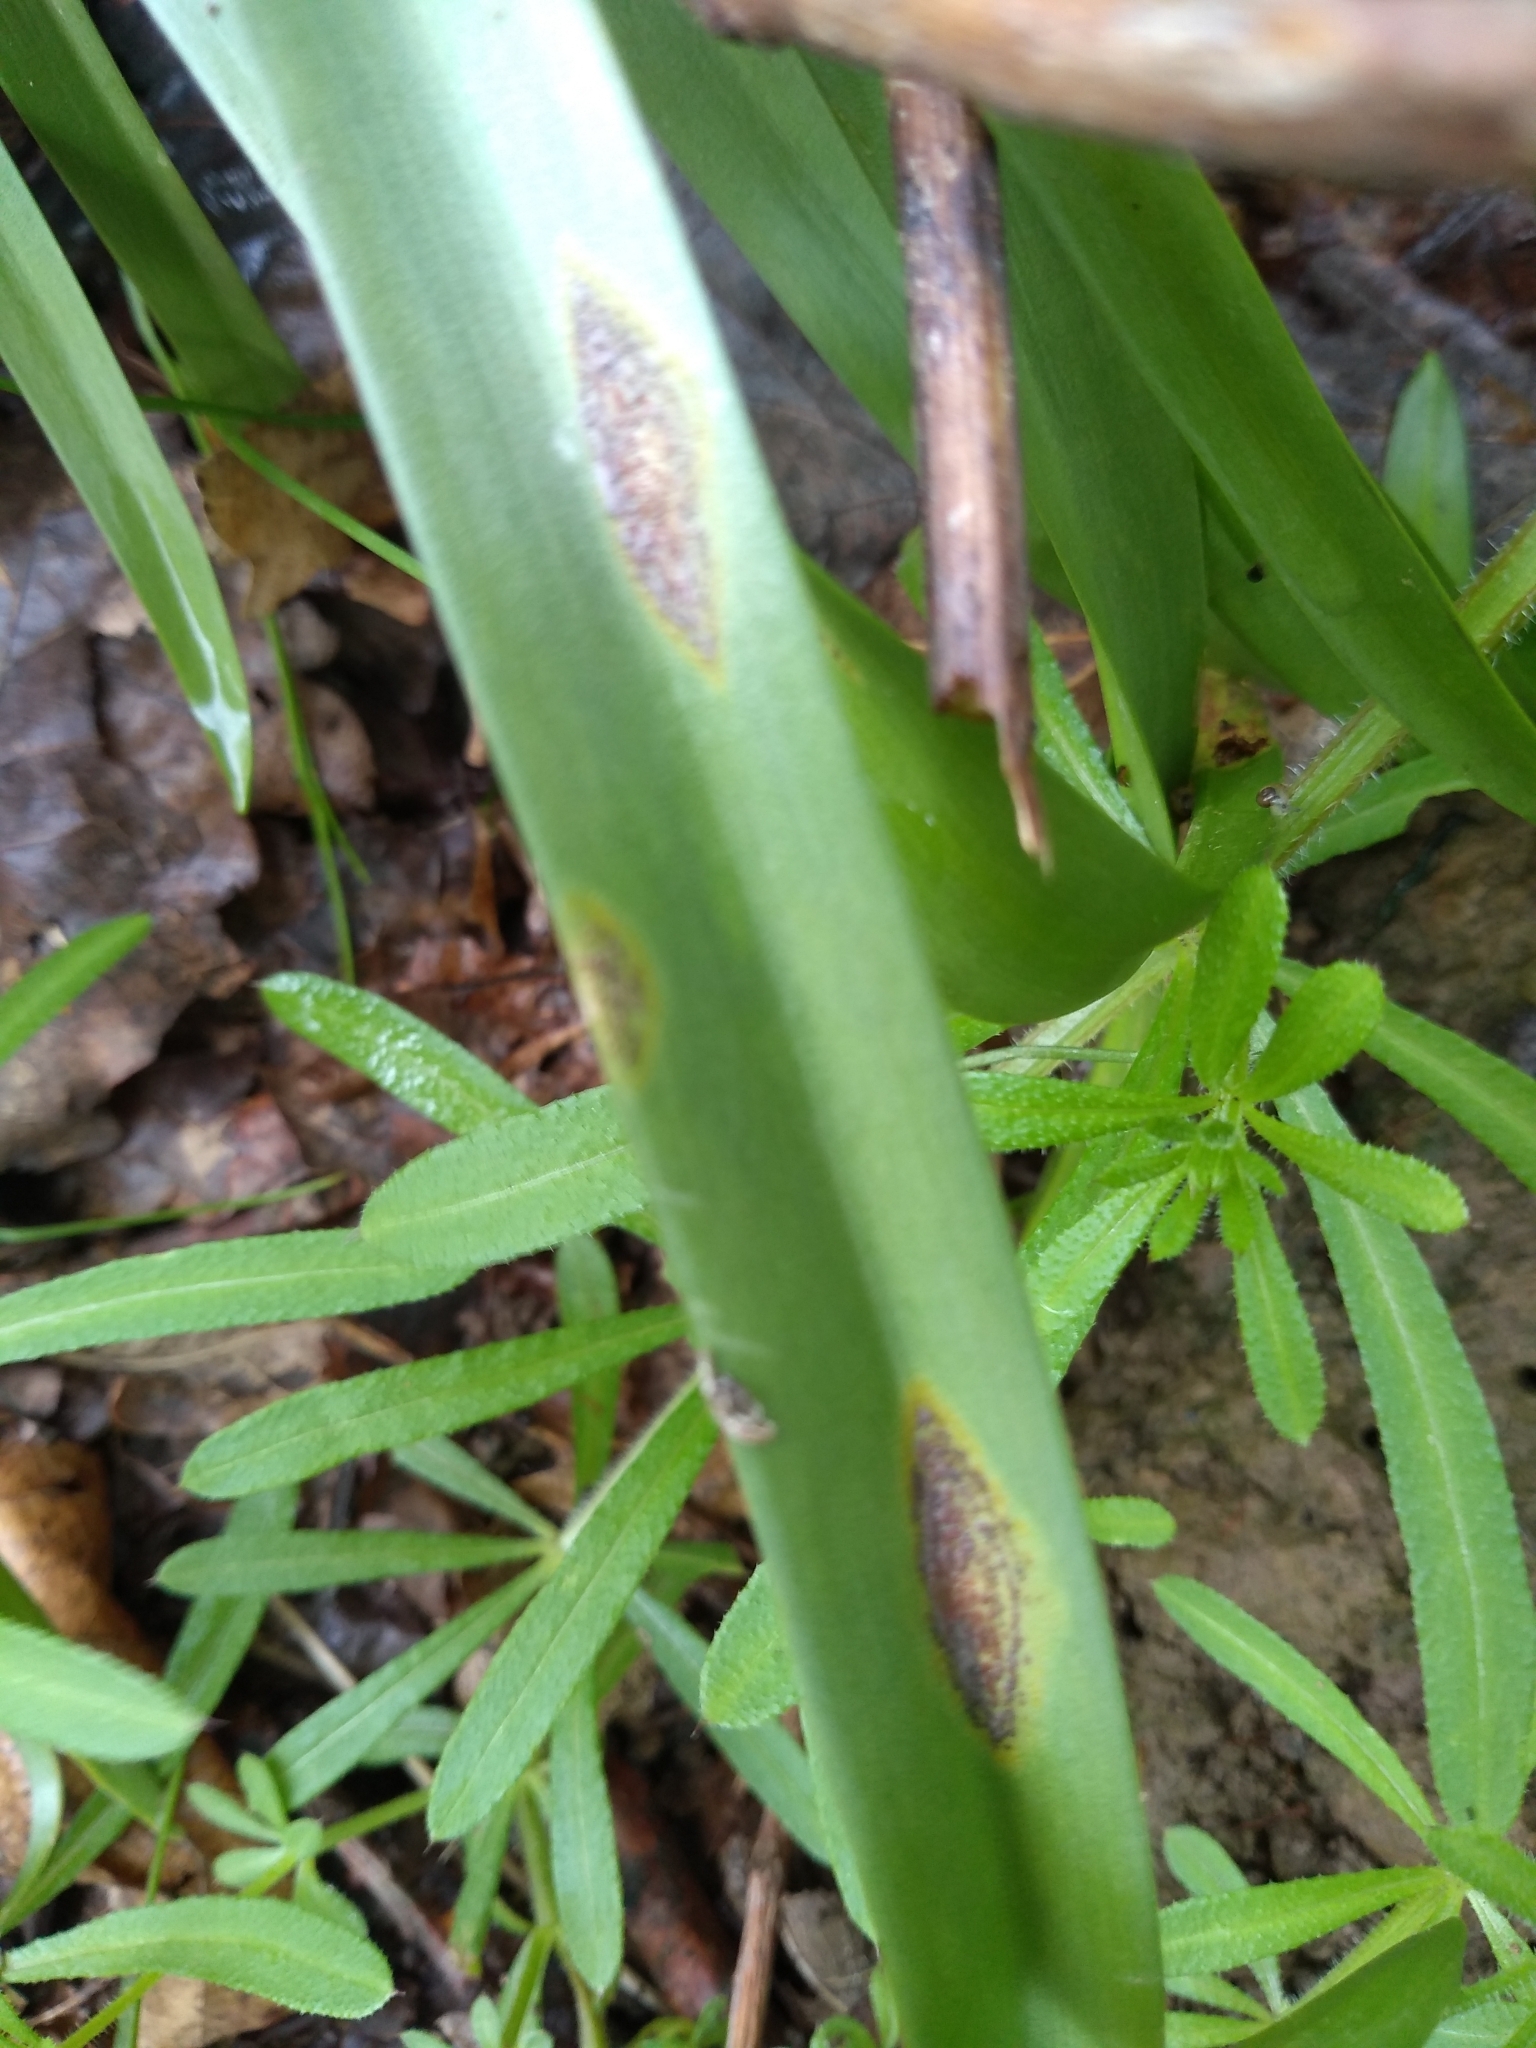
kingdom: Fungi
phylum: Basidiomycota
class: Pucciniomycetes
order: Pucciniales
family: Pucciniaceae
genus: Uromyces
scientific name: Uromyces hyacinthi
